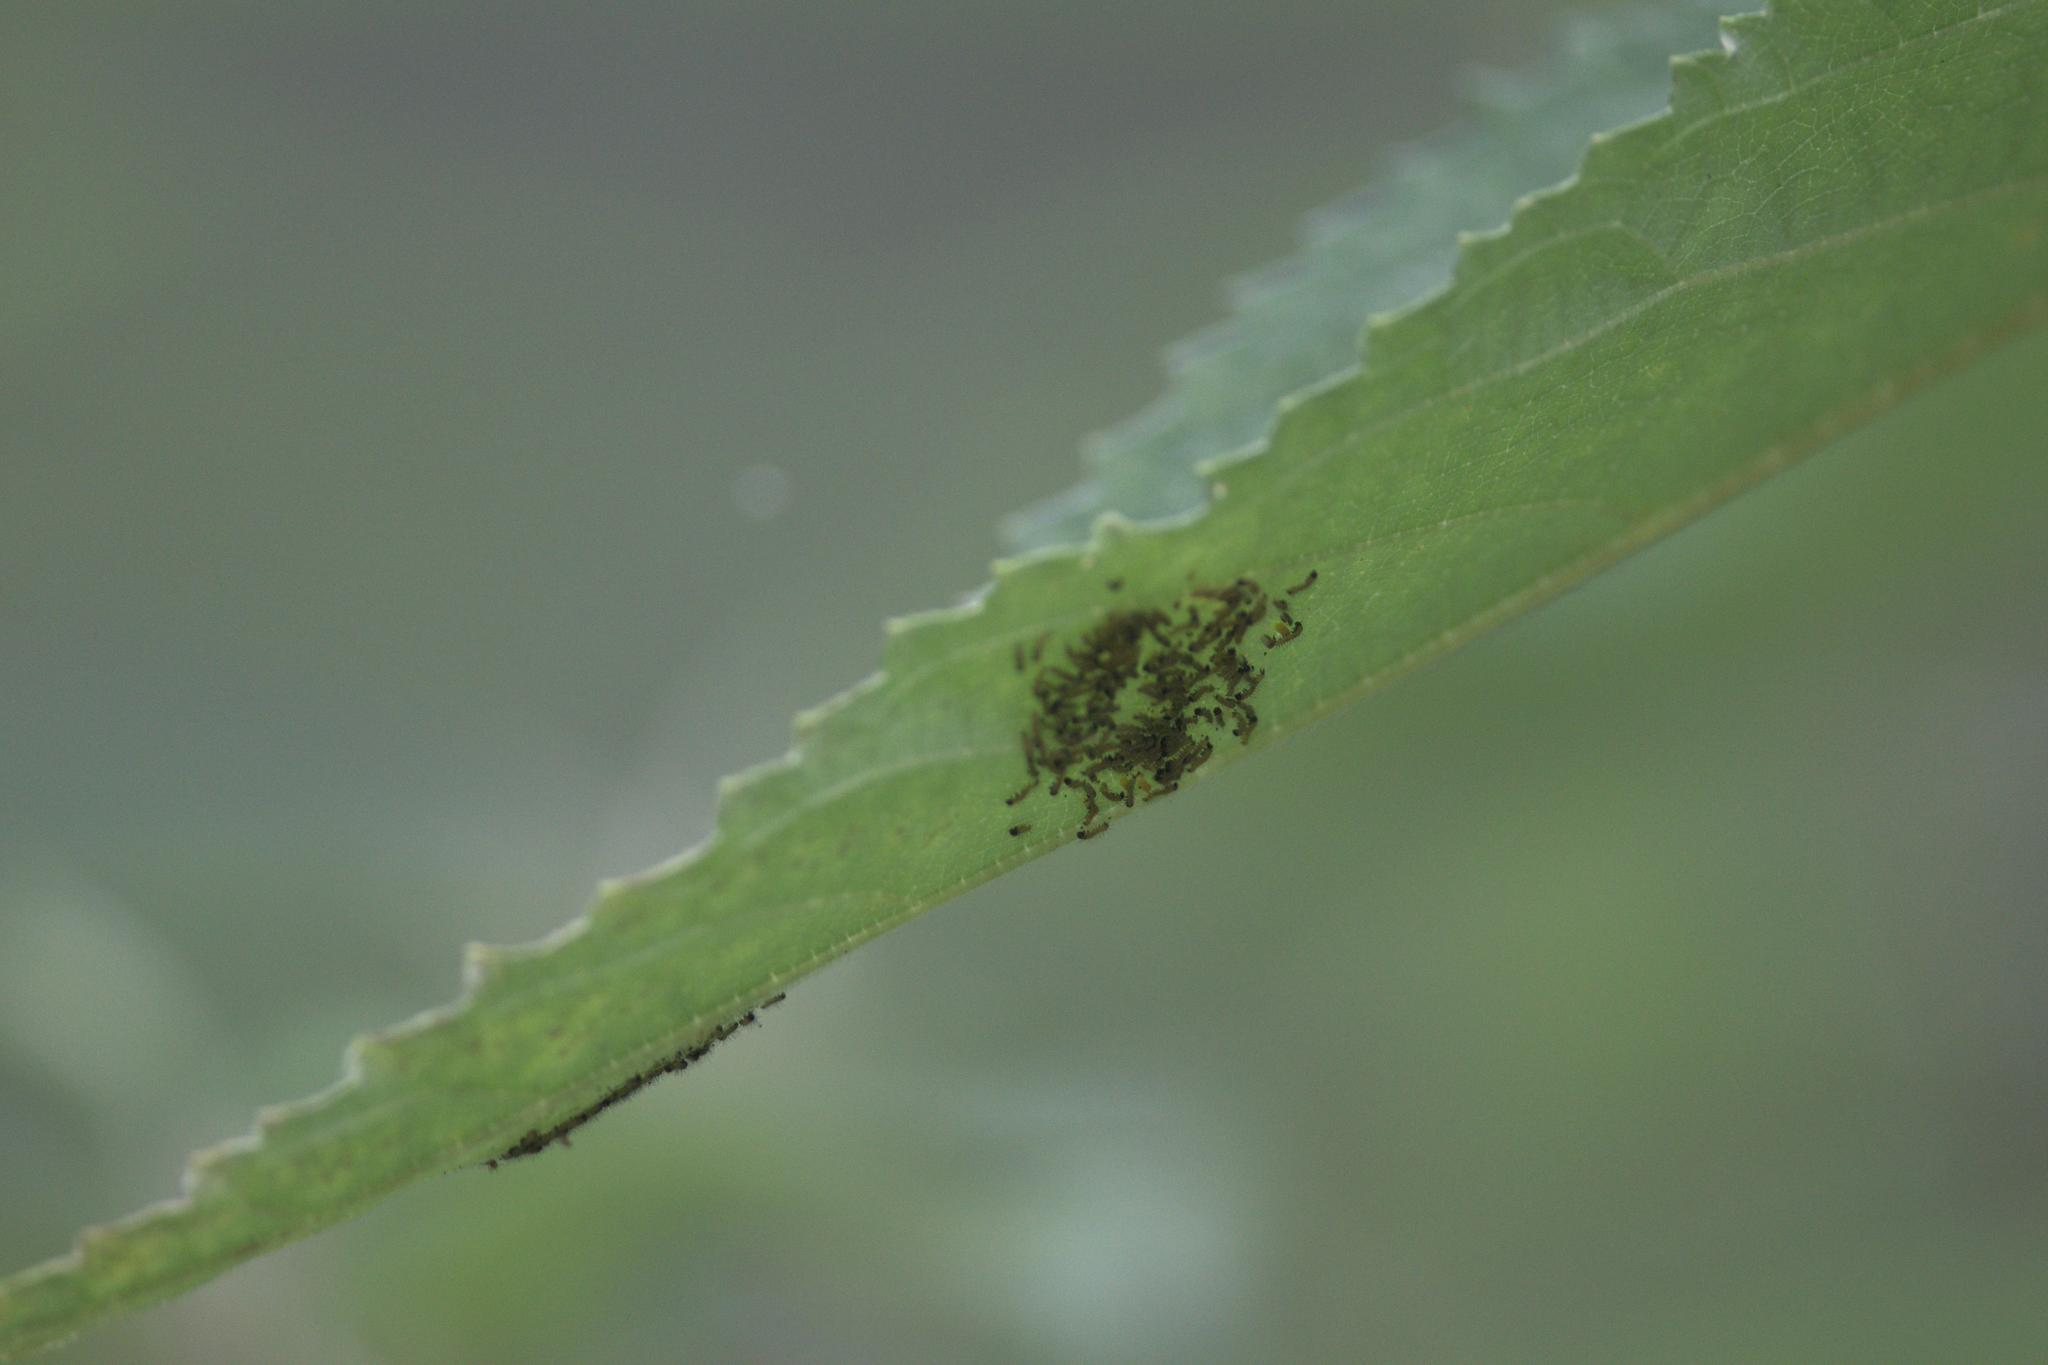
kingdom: Animalia
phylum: Arthropoda
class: Insecta
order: Lepidoptera
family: Nymphalidae
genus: Acraea
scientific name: Acraea Telchinia issoria
